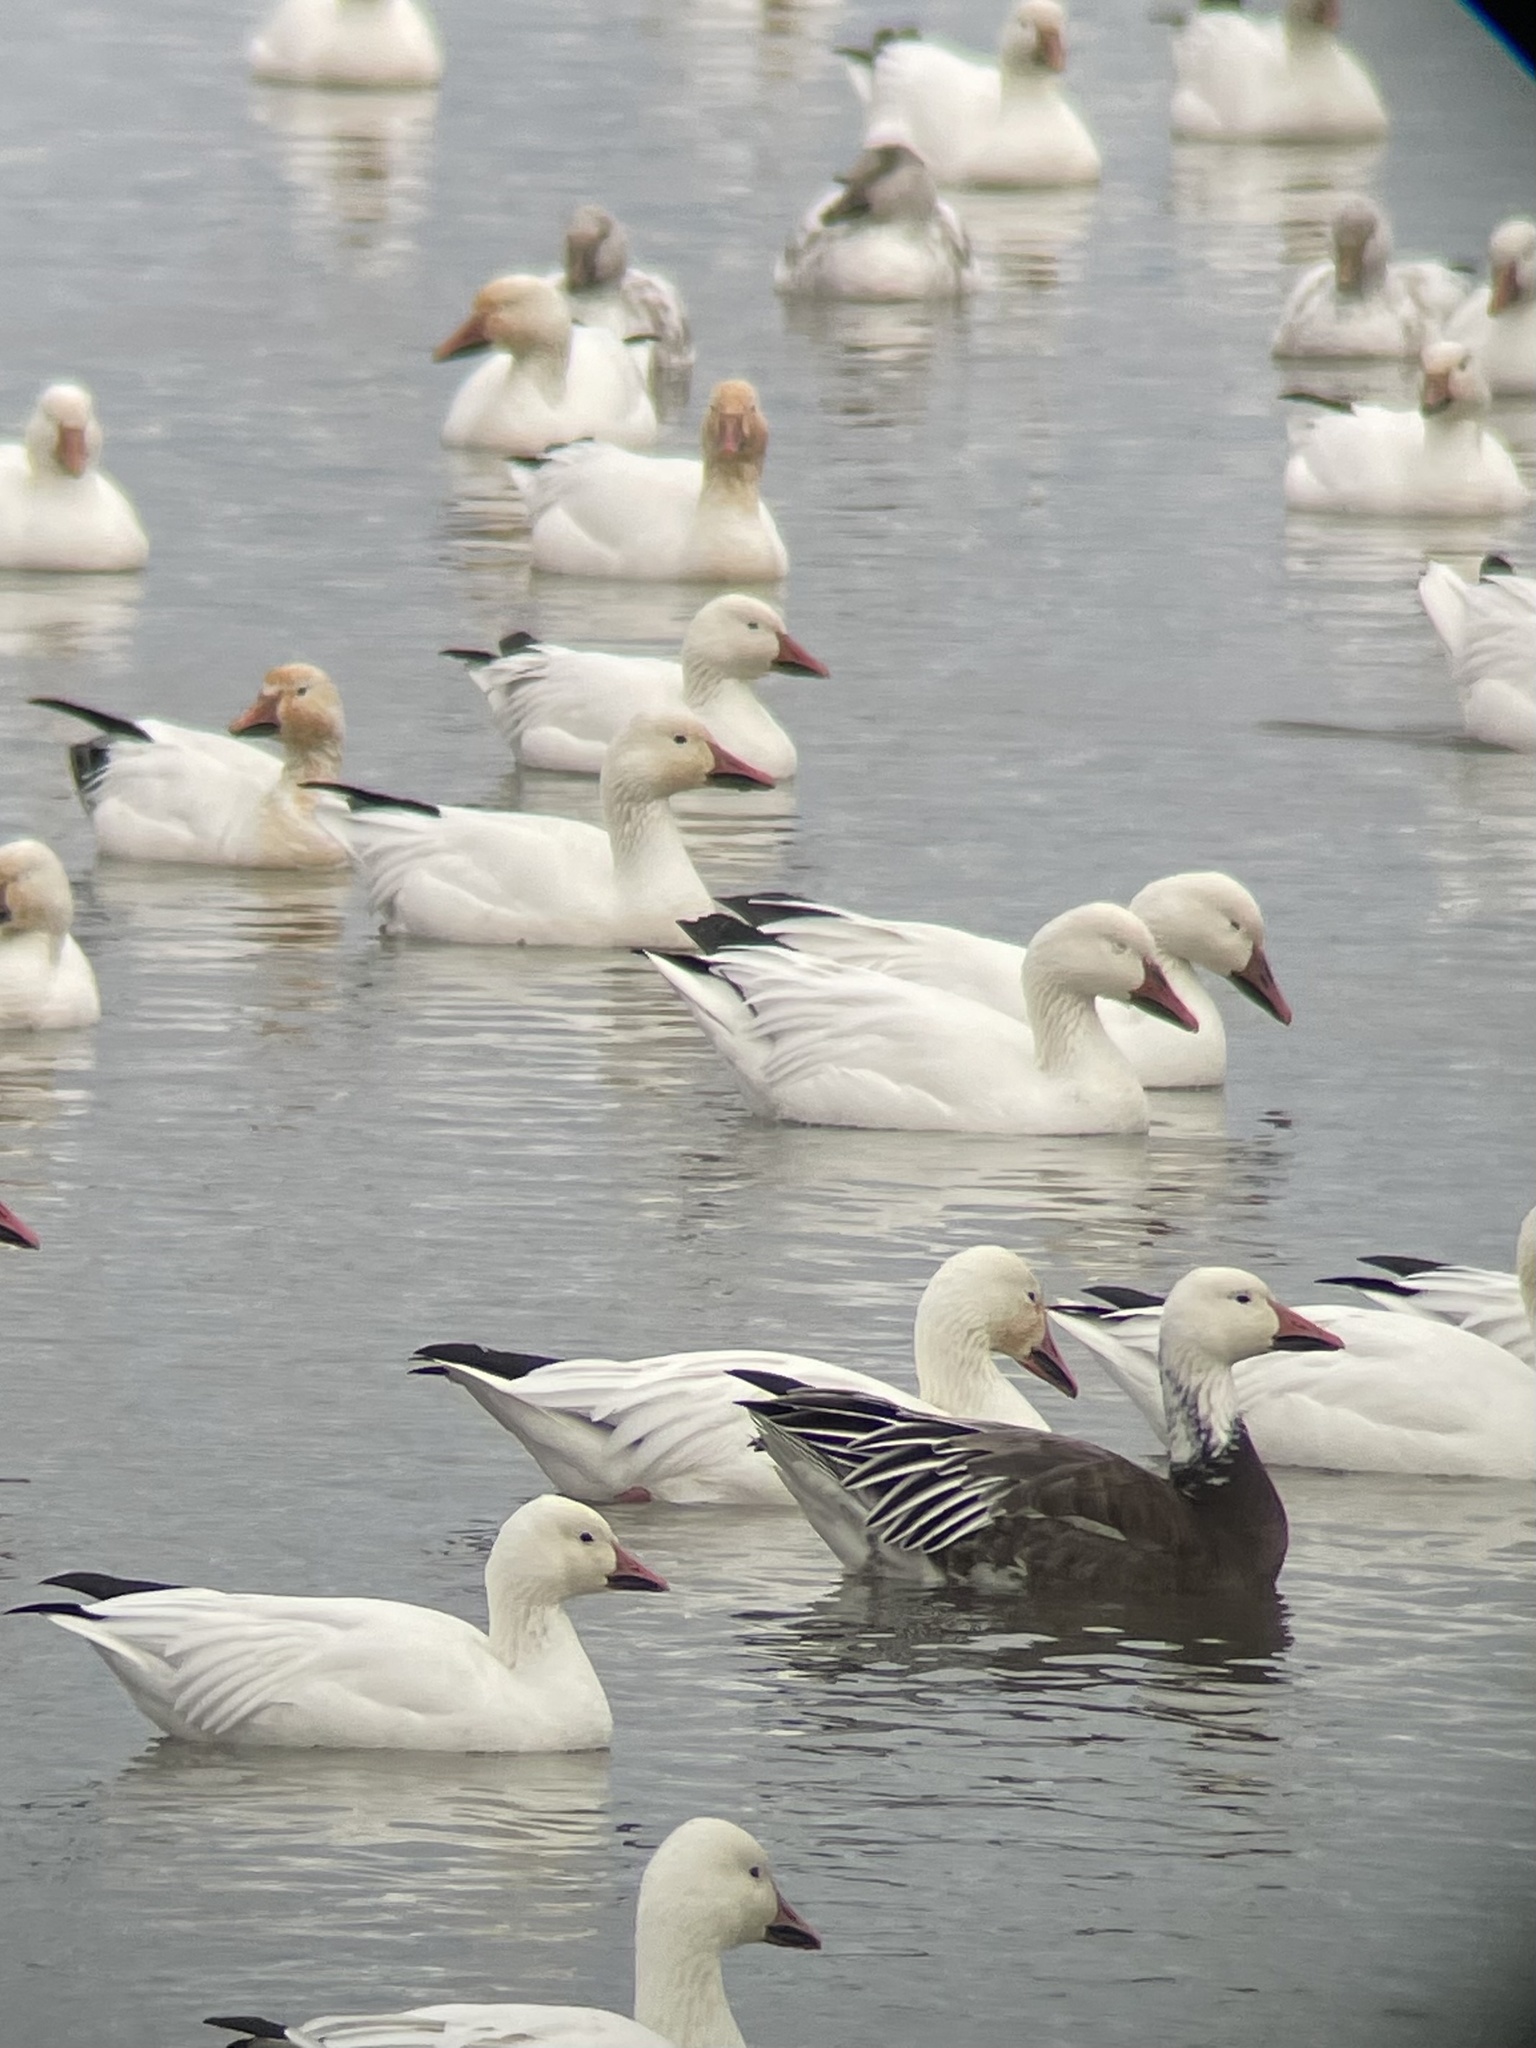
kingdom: Animalia
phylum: Chordata
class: Aves
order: Anseriformes
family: Anatidae
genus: Anser
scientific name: Anser caerulescens
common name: Snow goose
